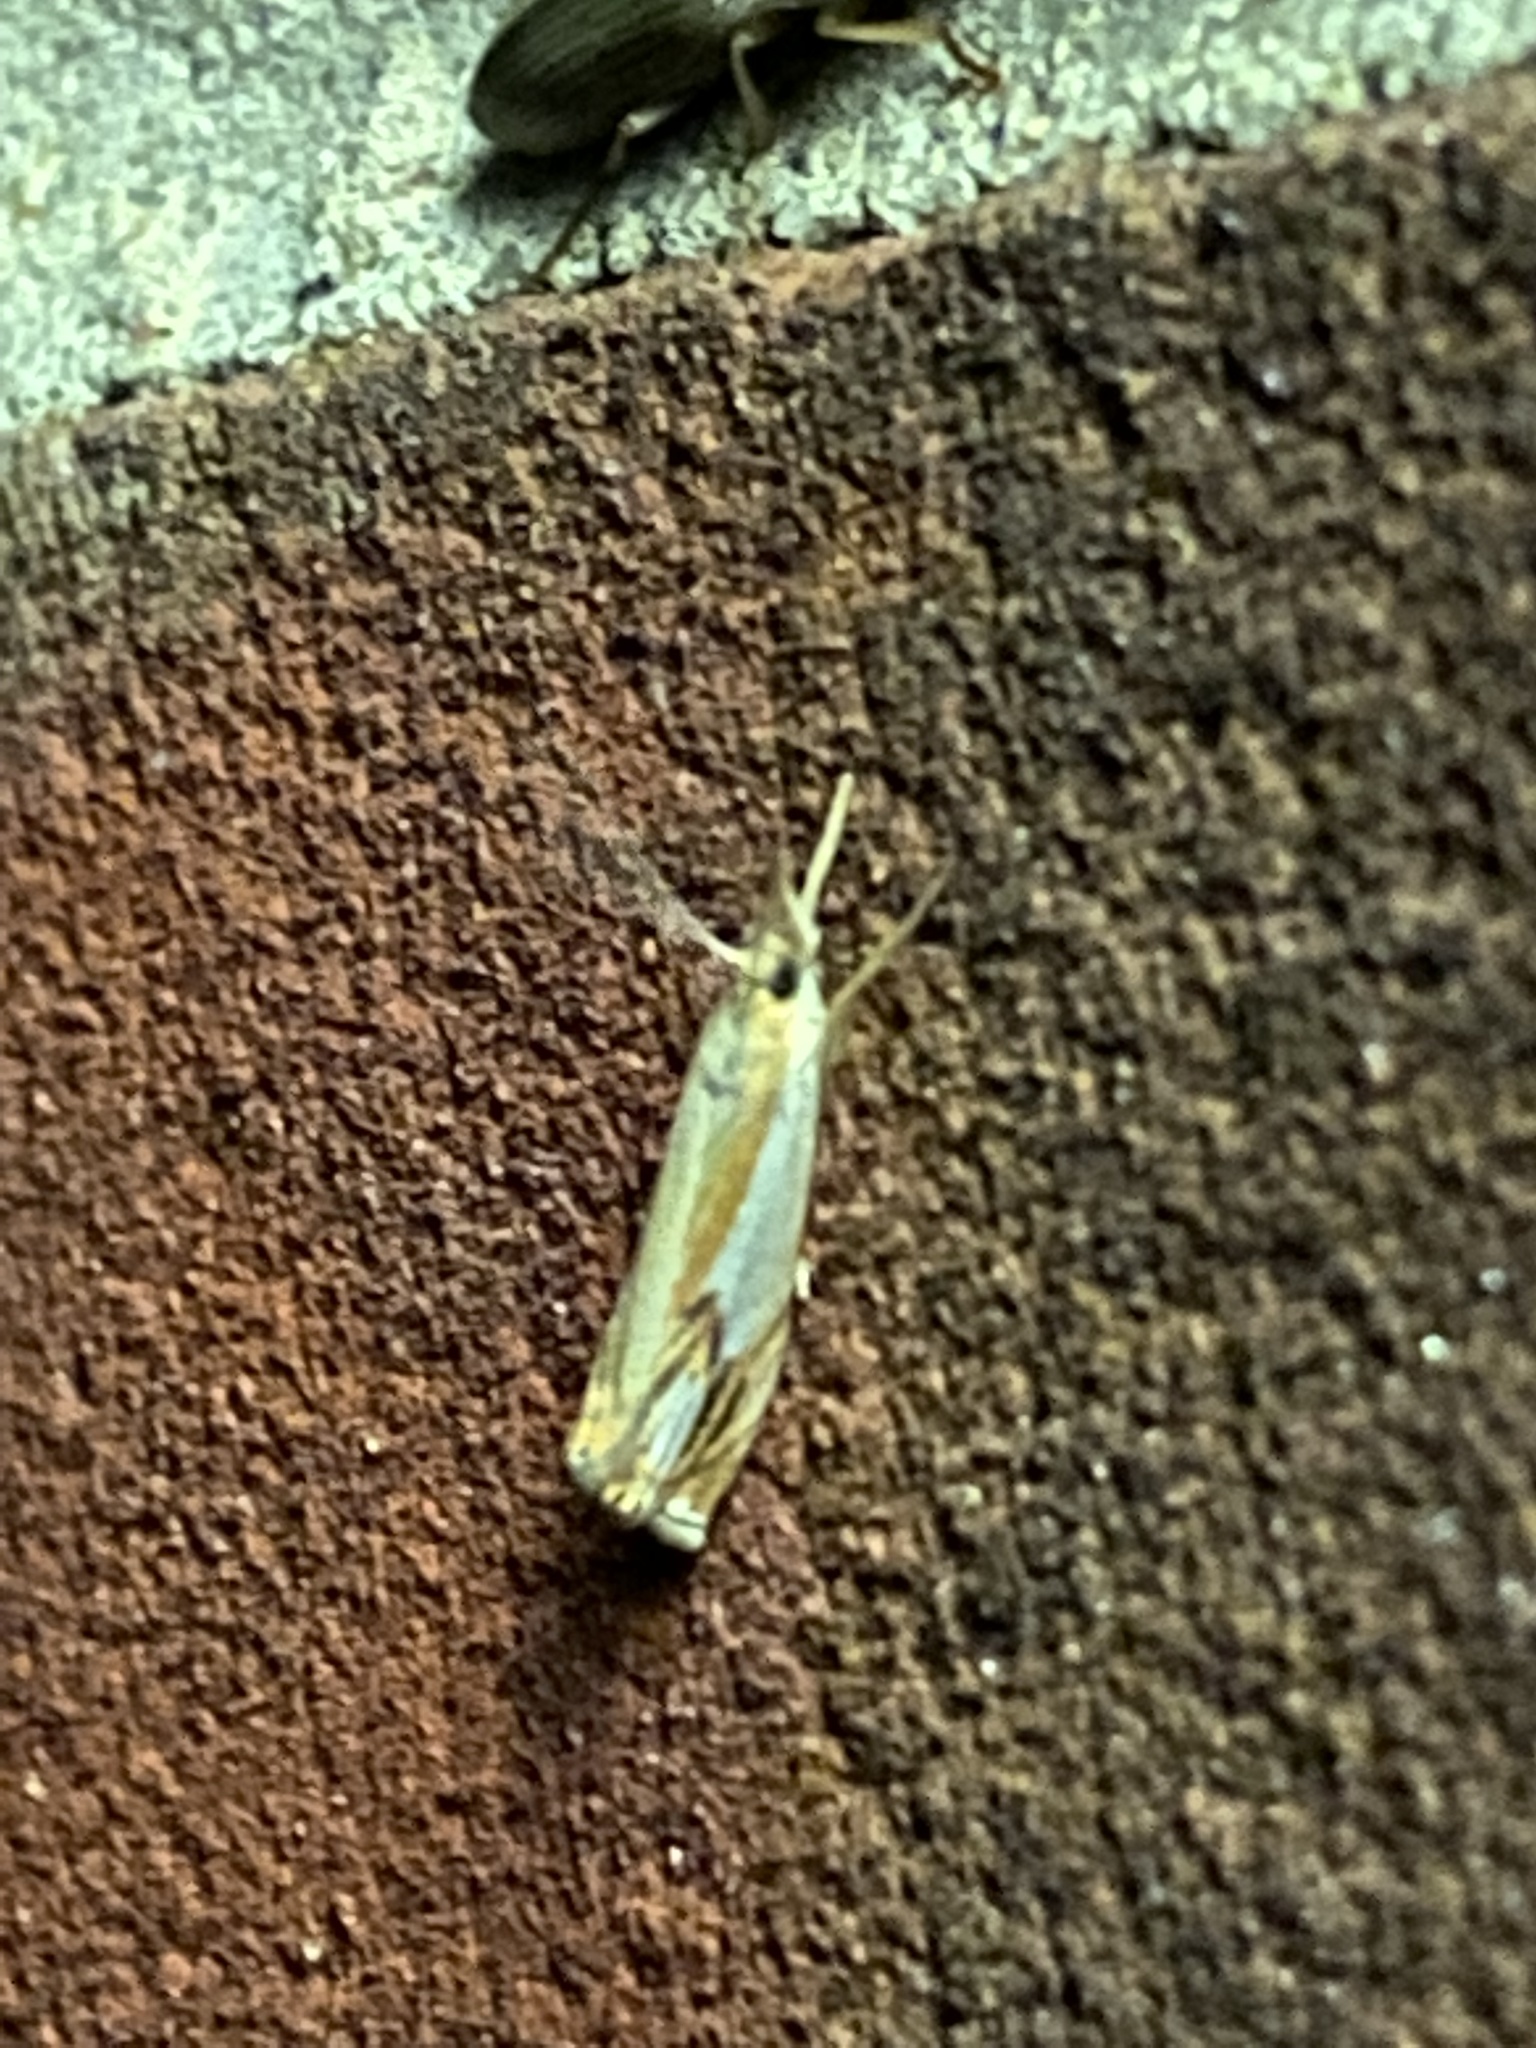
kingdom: Animalia
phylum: Arthropoda
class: Insecta
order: Lepidoptera
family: Crambidae
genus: Crambus
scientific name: Crambus agitatellus
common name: Double-banded grass-veneer
